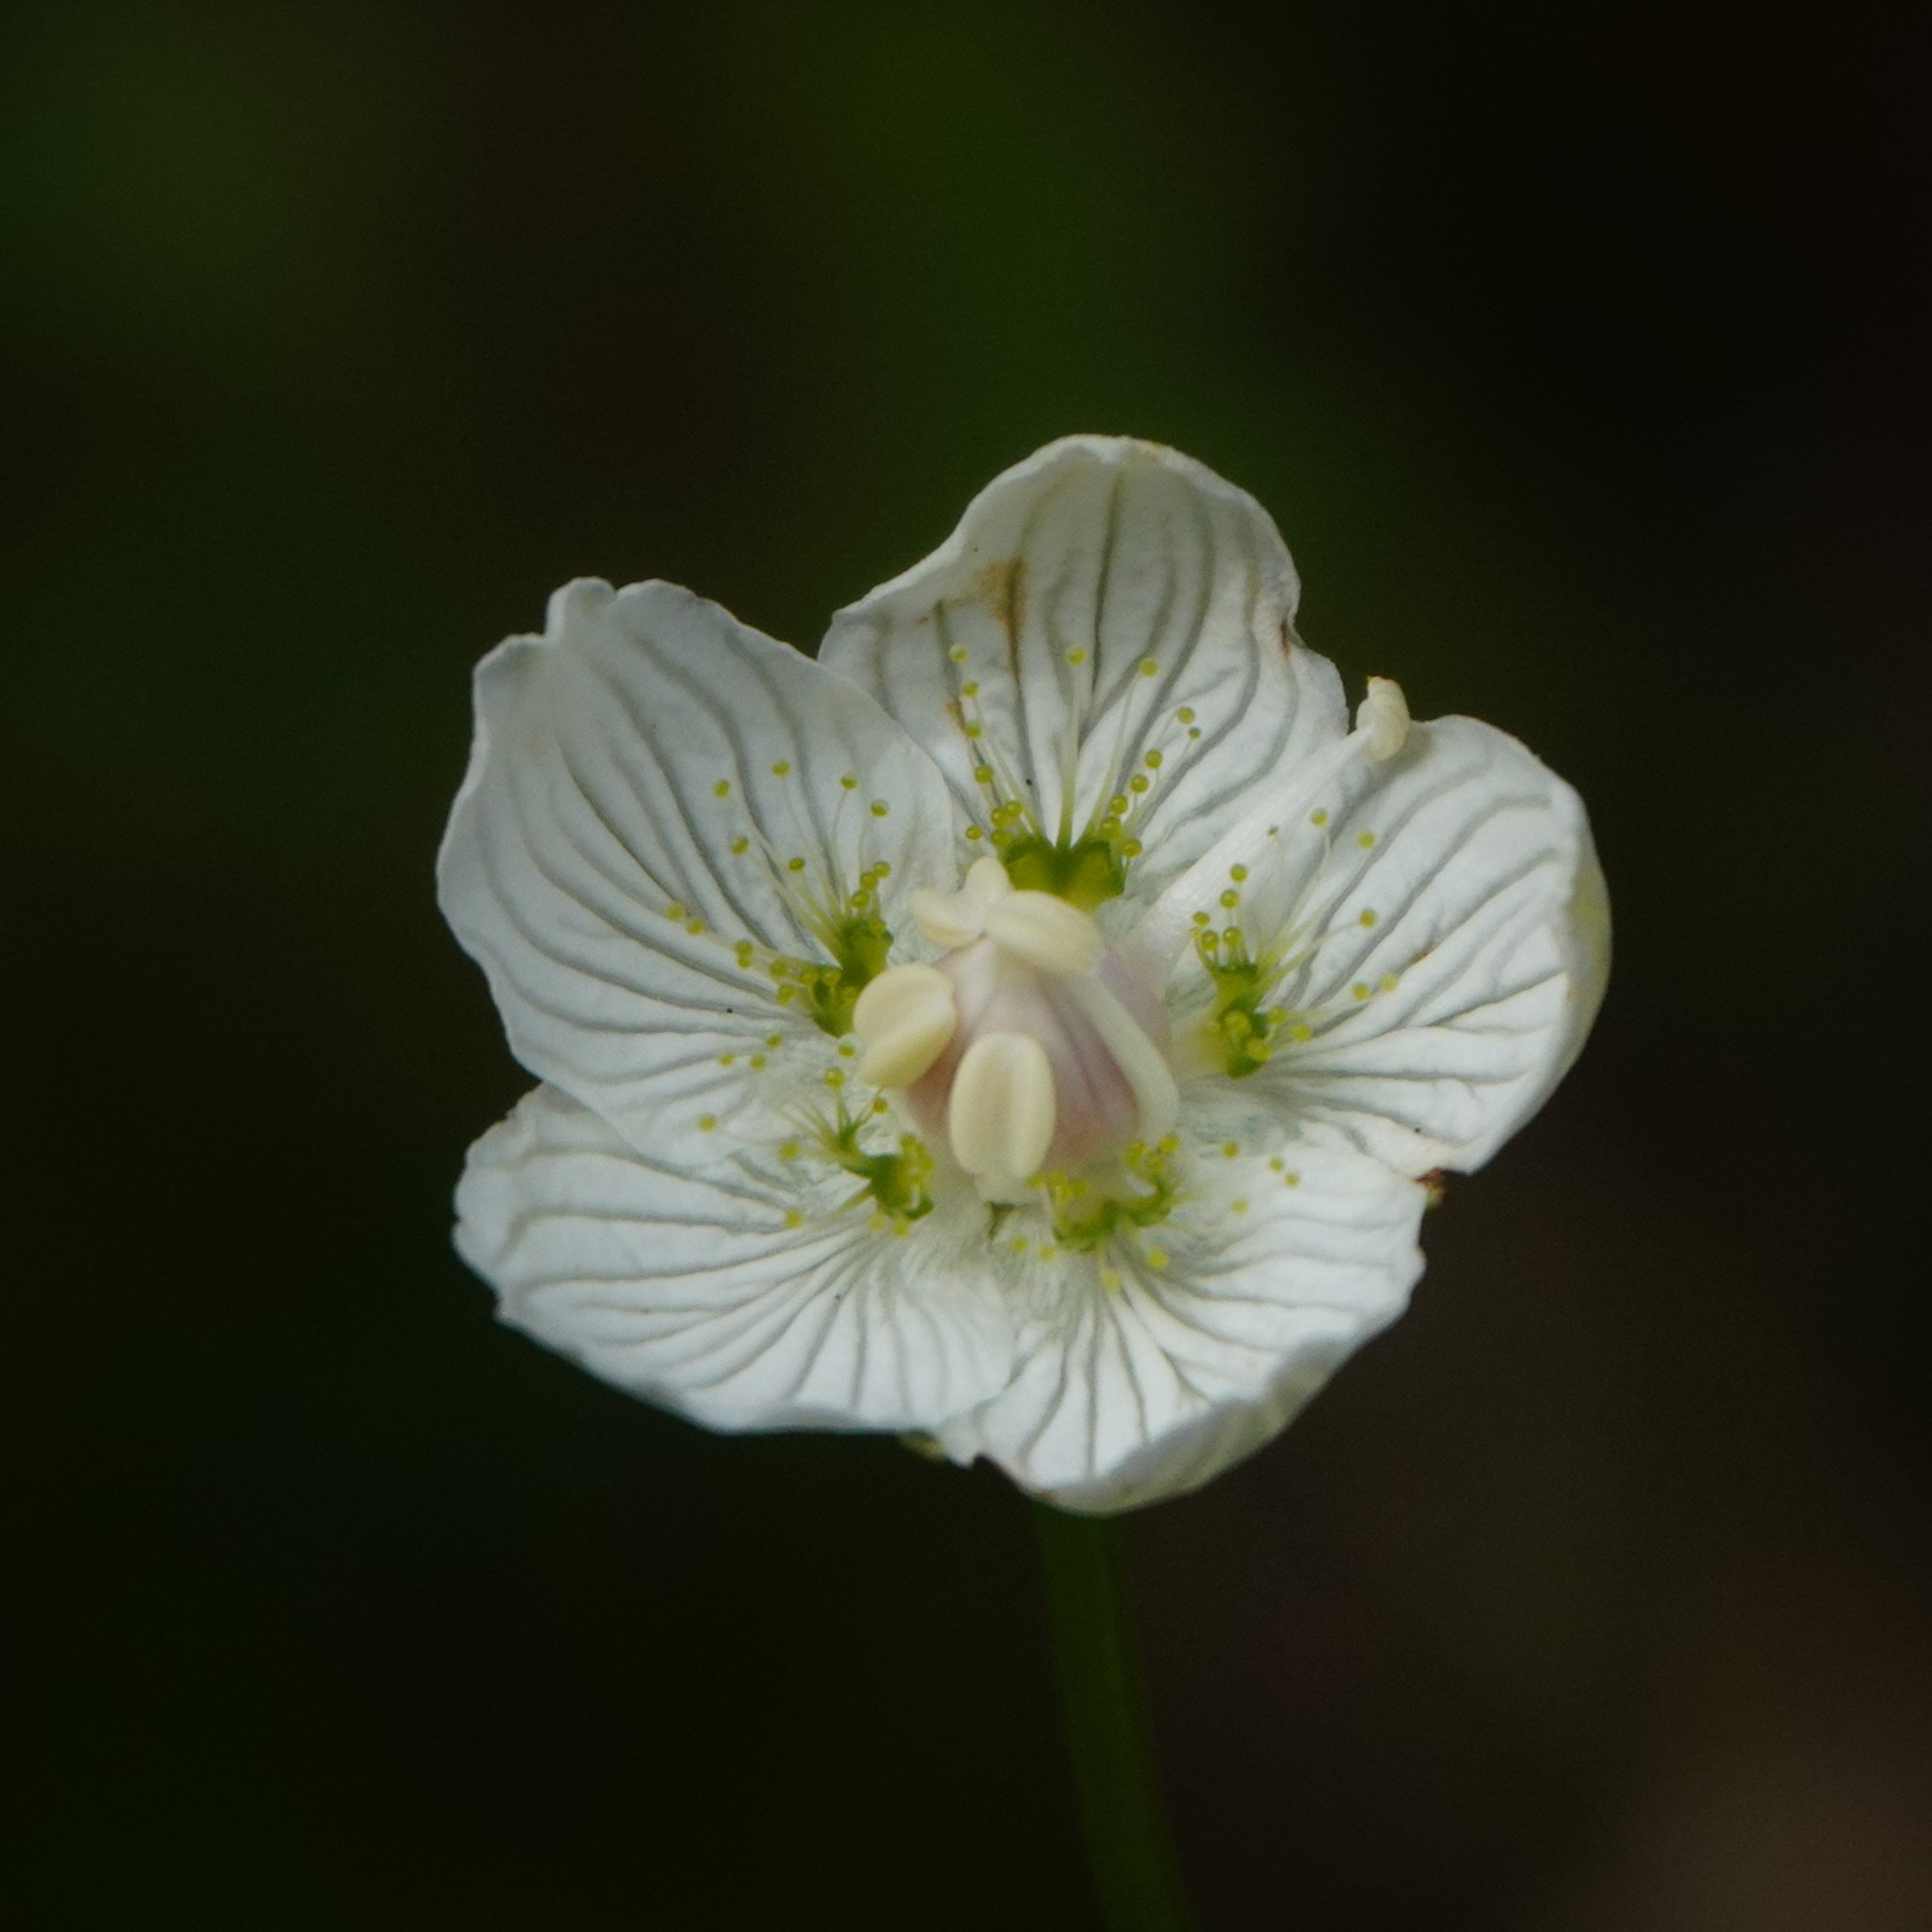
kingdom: Plantae
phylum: Tracheophyta
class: Magnoliopsida
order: Celastrales
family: Parnassiaceae
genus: Parnassia
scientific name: Parnassia palustris
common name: Grass-of-parnassus
